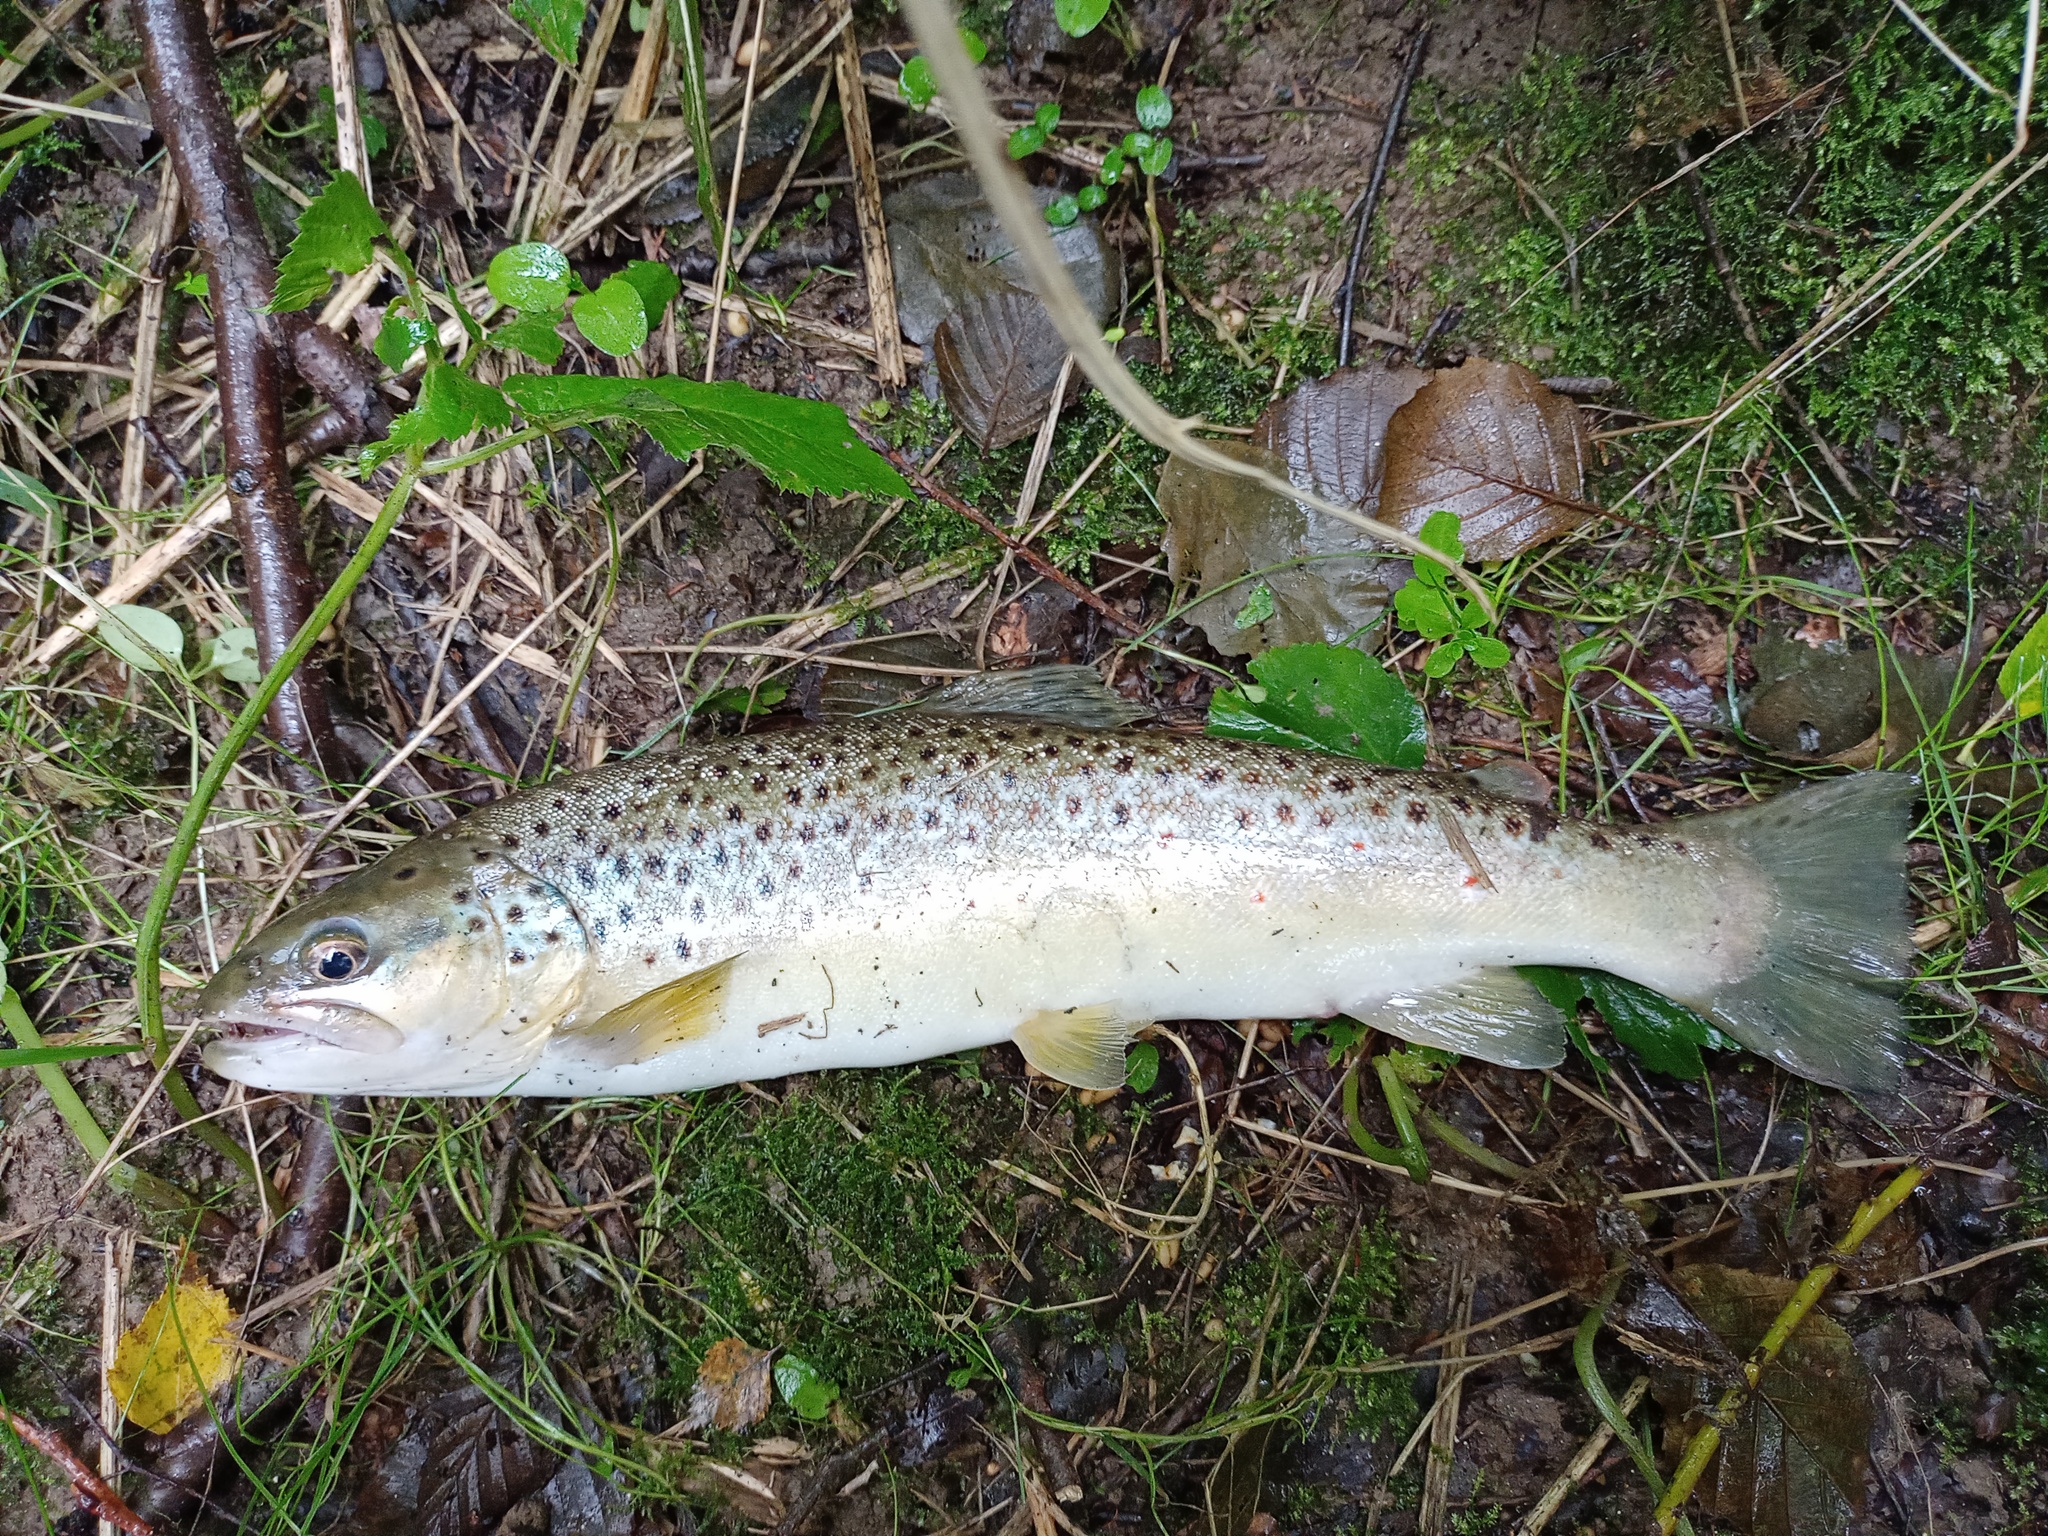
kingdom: Animalia
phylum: Chordata
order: Salmoniformes
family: Salmonidae
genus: Salmo
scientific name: Salmo trutta
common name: Brown trout
